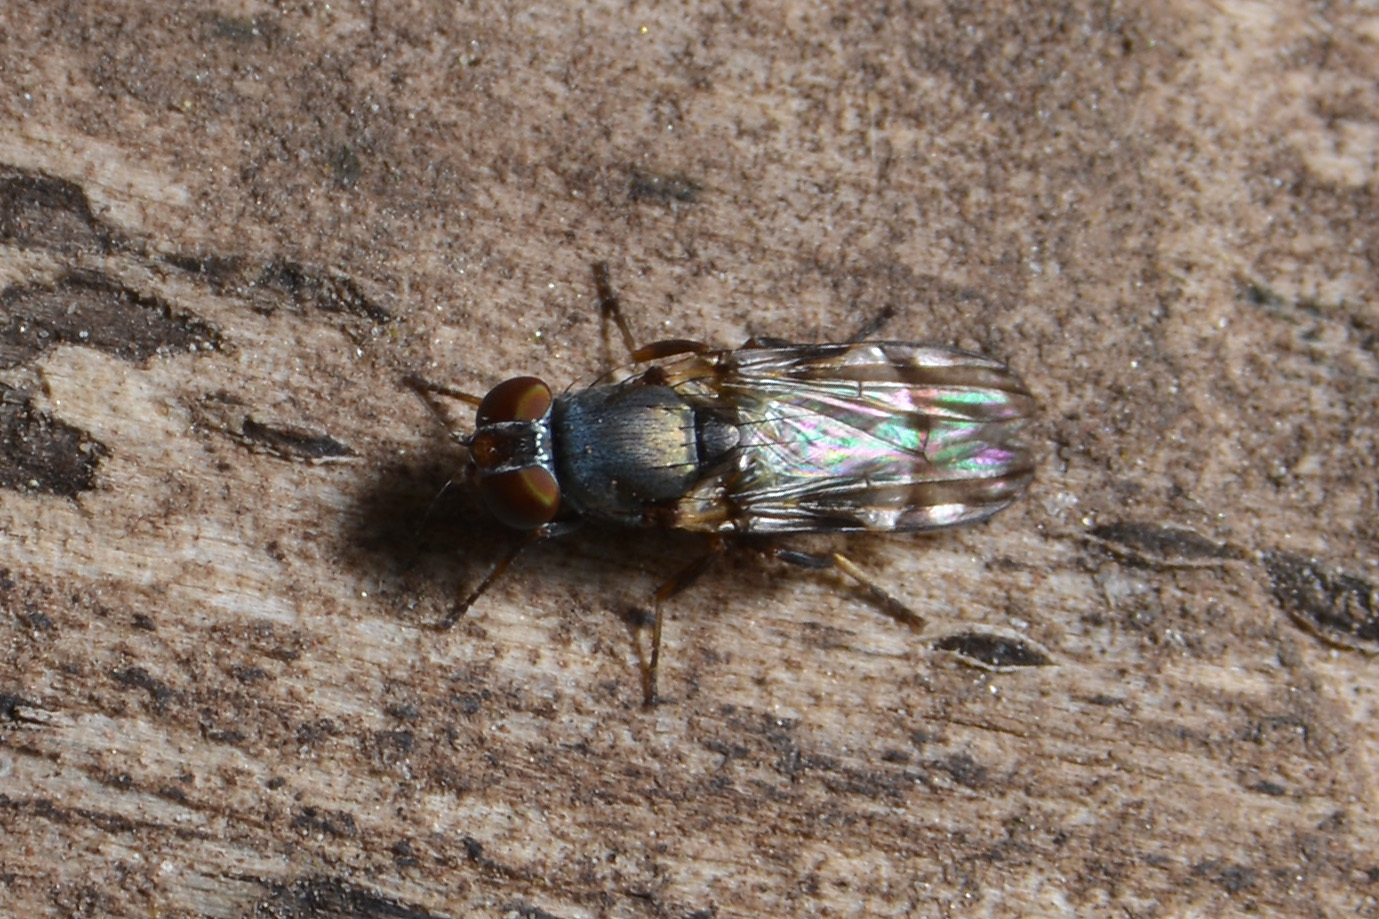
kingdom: Animalia
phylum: Arthropoda
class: Insecta
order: Diptera
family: Ulidiidae
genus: Euxesta
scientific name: Euxesta eluta
